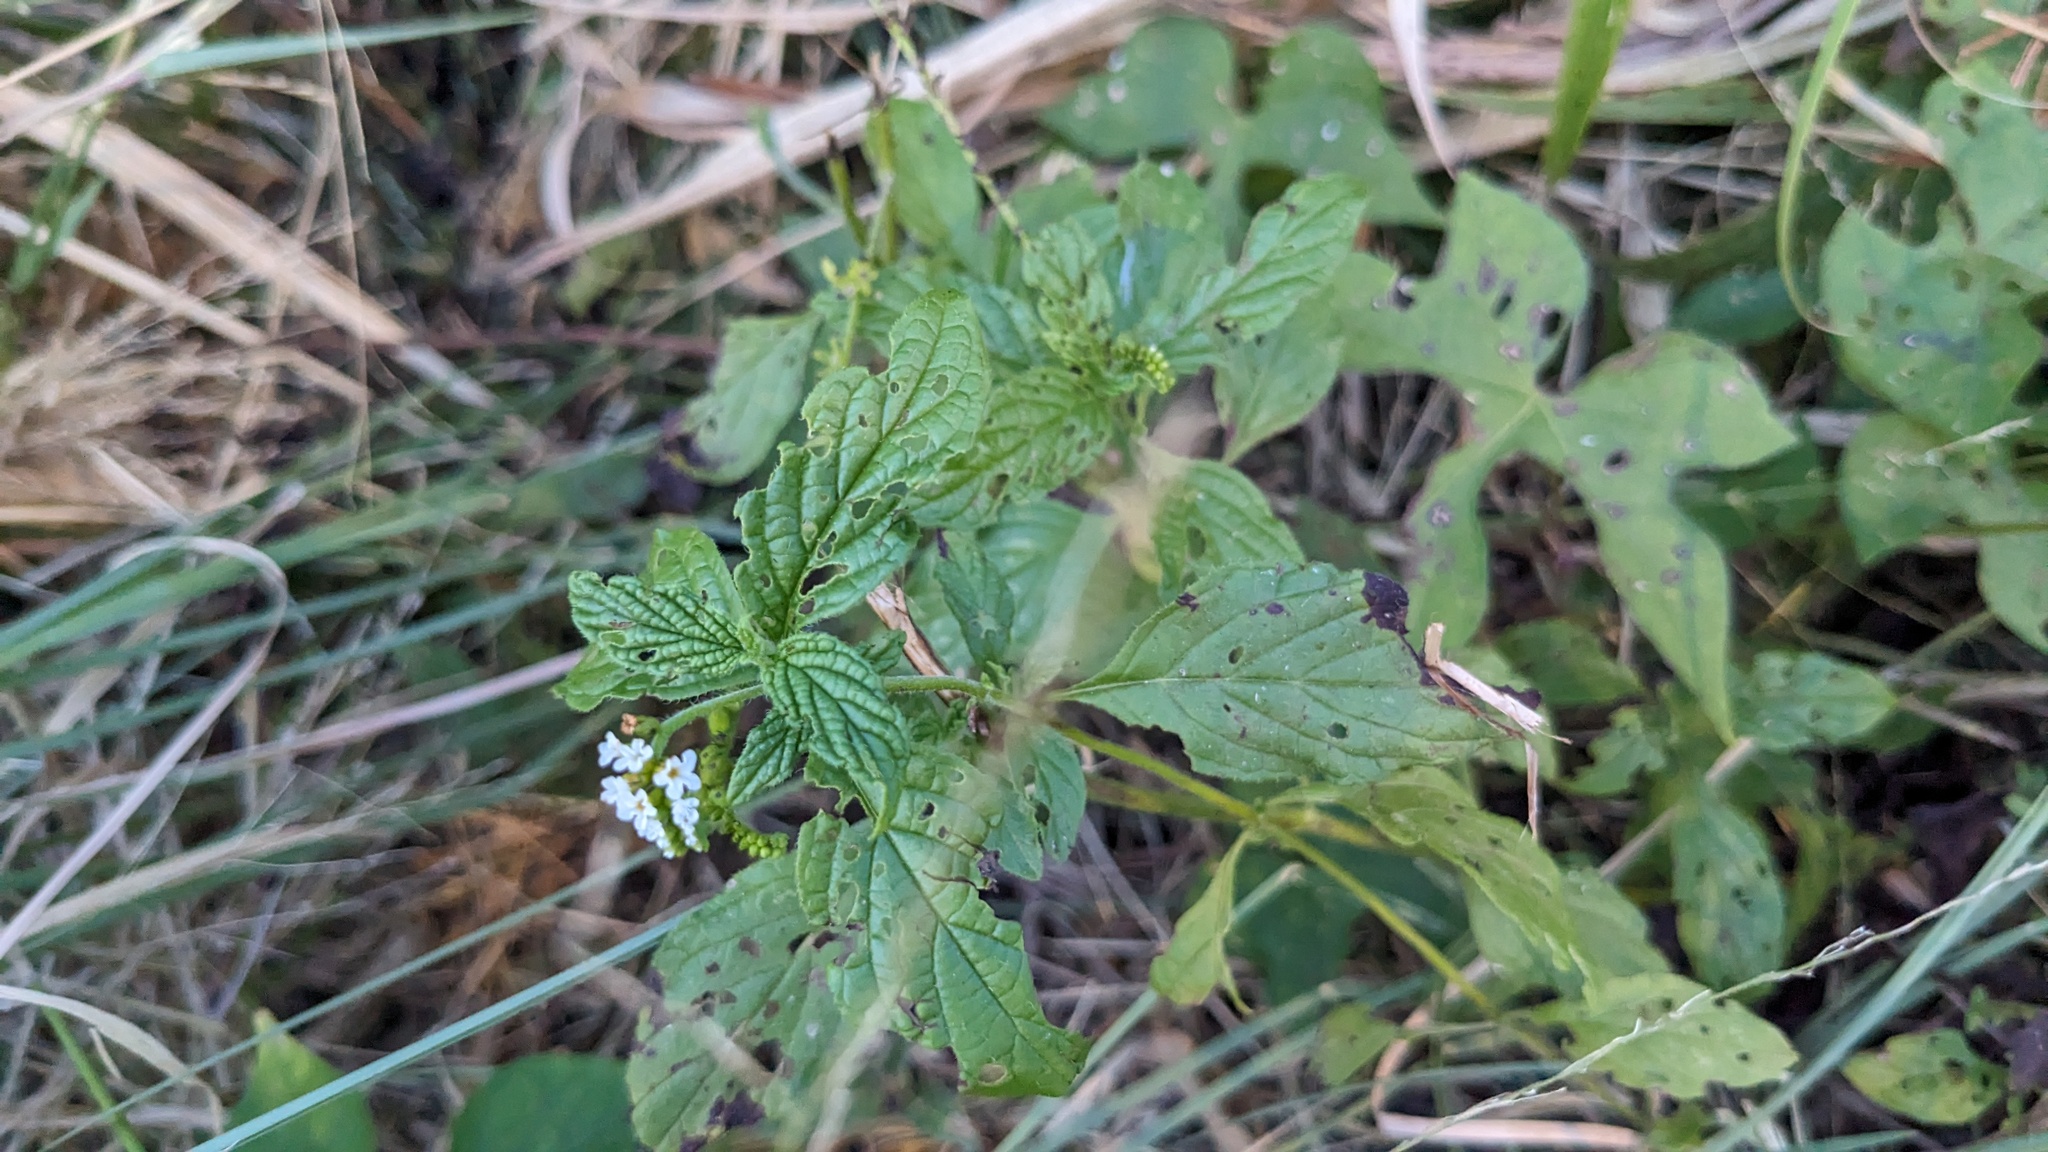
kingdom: Plantae
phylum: Tracheophyta
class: Magnoliopsida
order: Boraginales
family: Heliotropiaceae
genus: Heliotropium
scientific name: Heliotropium angiospermum
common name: Eye bright
